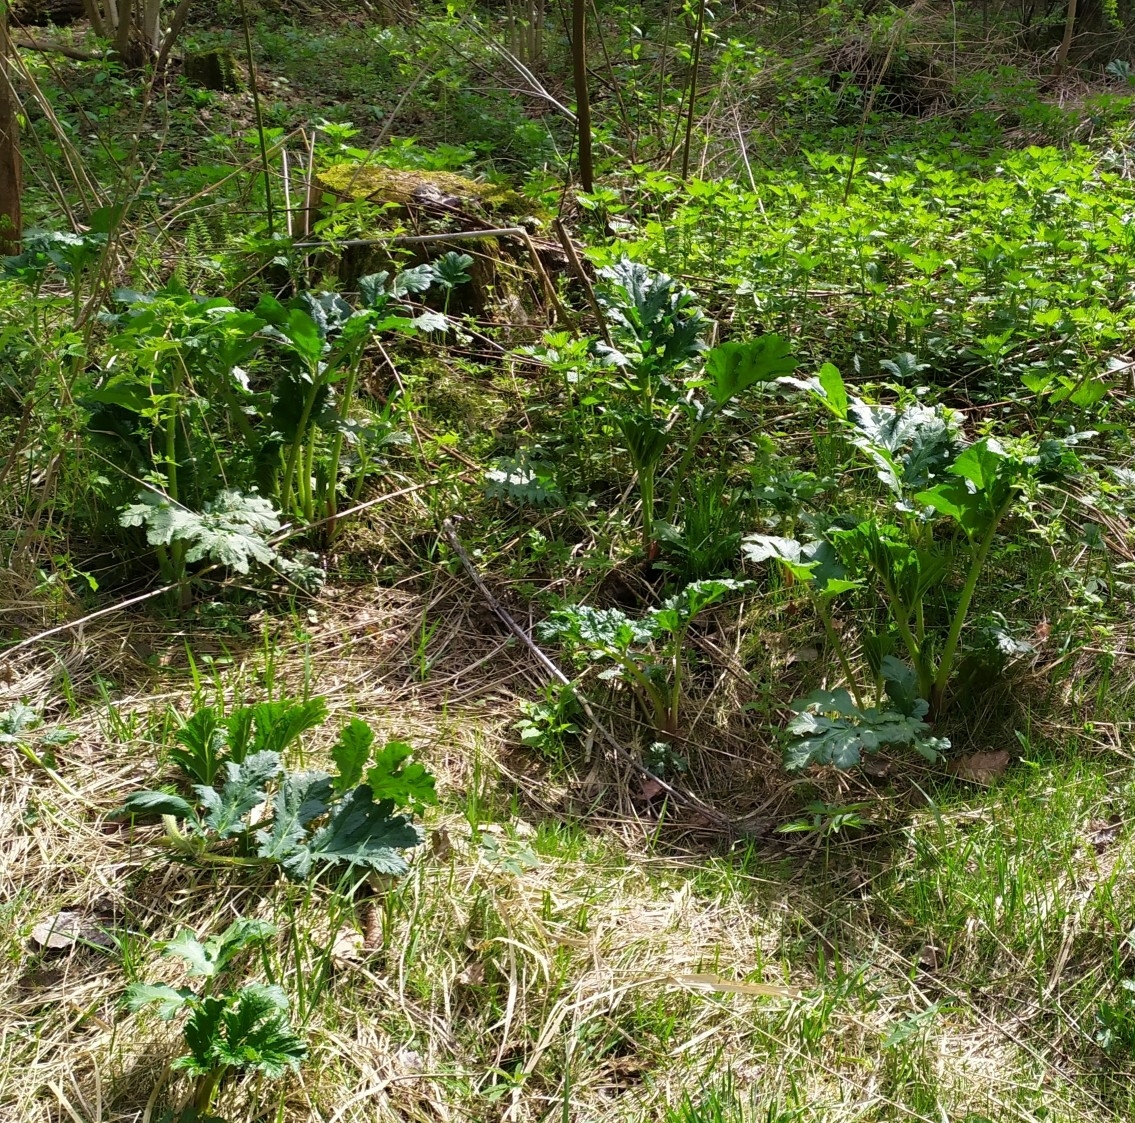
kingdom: Plantae
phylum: Tracheophyta
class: Magnoliopsida
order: Apiales
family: Apiaceae
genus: Heracleum
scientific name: Heracleum sosnowskyi
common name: Sosnowsky's hogweed
